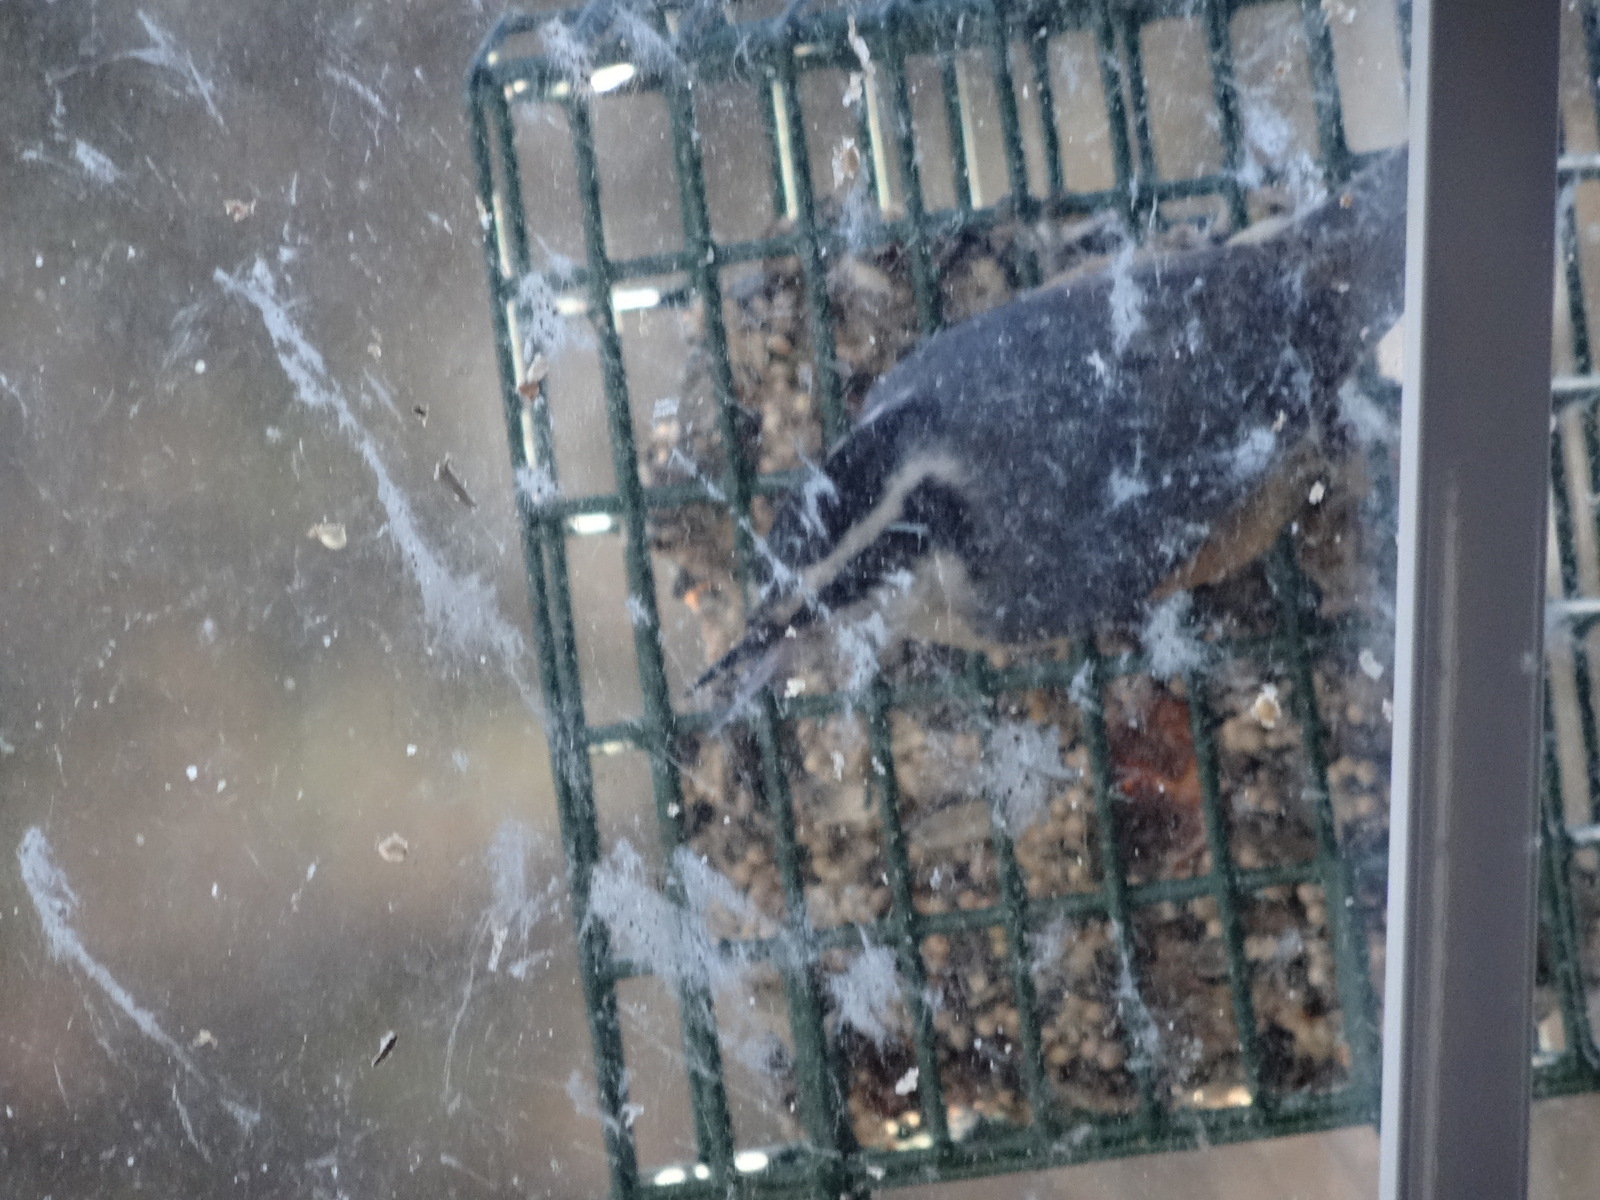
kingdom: Animalia
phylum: Chordata
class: Aves
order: Passeriformes
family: Sittidae
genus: Sitta
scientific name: Sitta canadensis
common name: Red-breasted nuthatch
